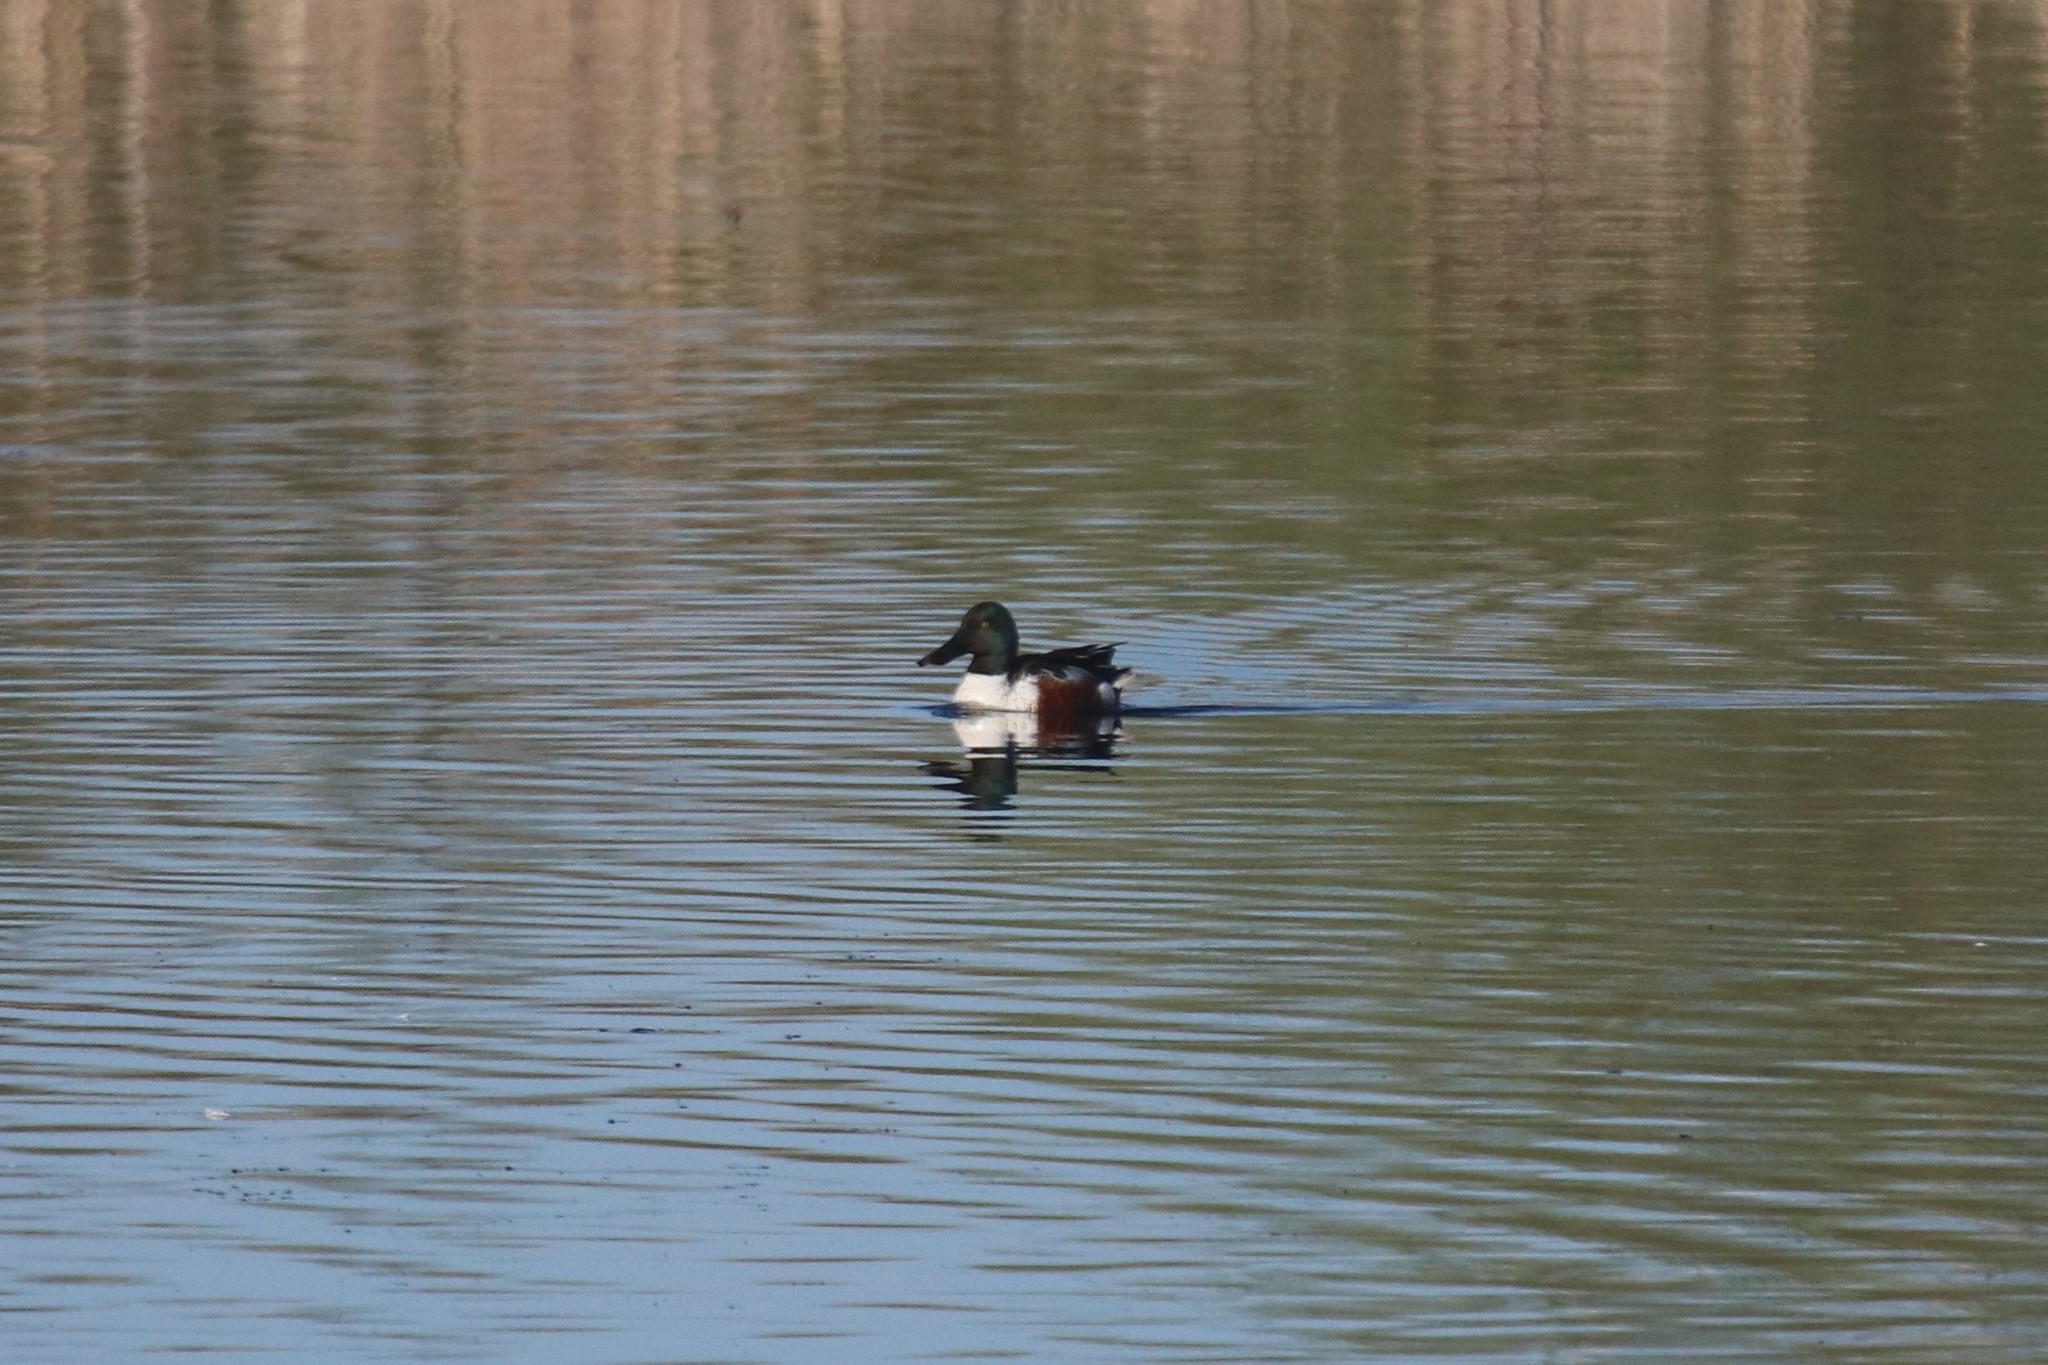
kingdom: Animalia
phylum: Chordata
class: Aves
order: Anseriformes
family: Anatidae
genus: Spatula
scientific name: Spatula clypeata
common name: Northern shoveler
